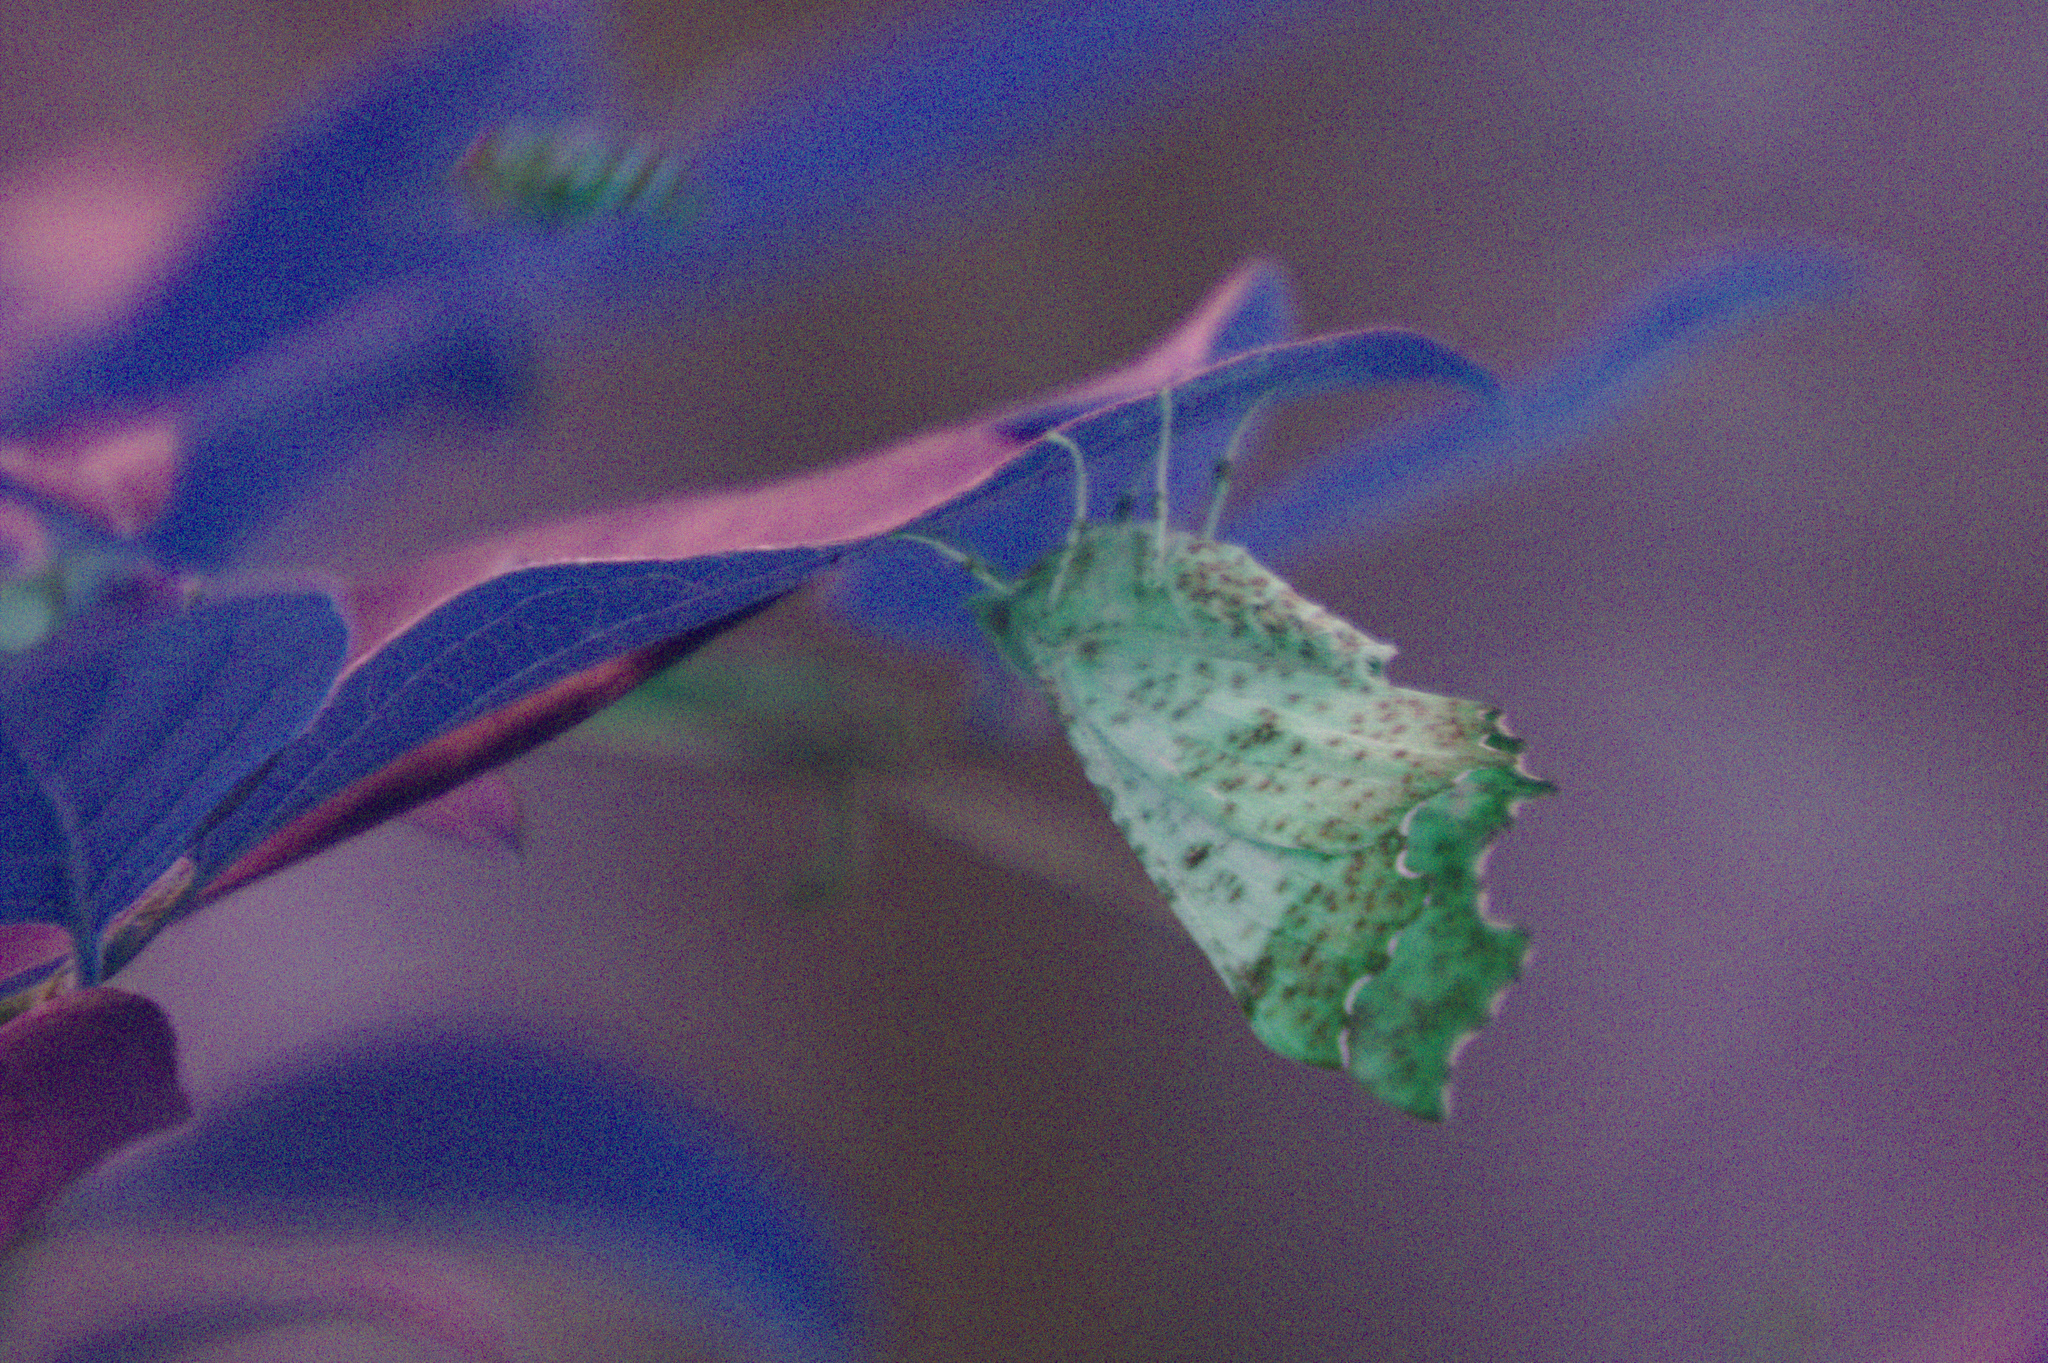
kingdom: Animalia
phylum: Arthropoda
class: Insecta
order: Lepidoptera
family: Geometridae
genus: Ennomos
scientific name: Ennomos magnaria
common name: Maple spanworm
